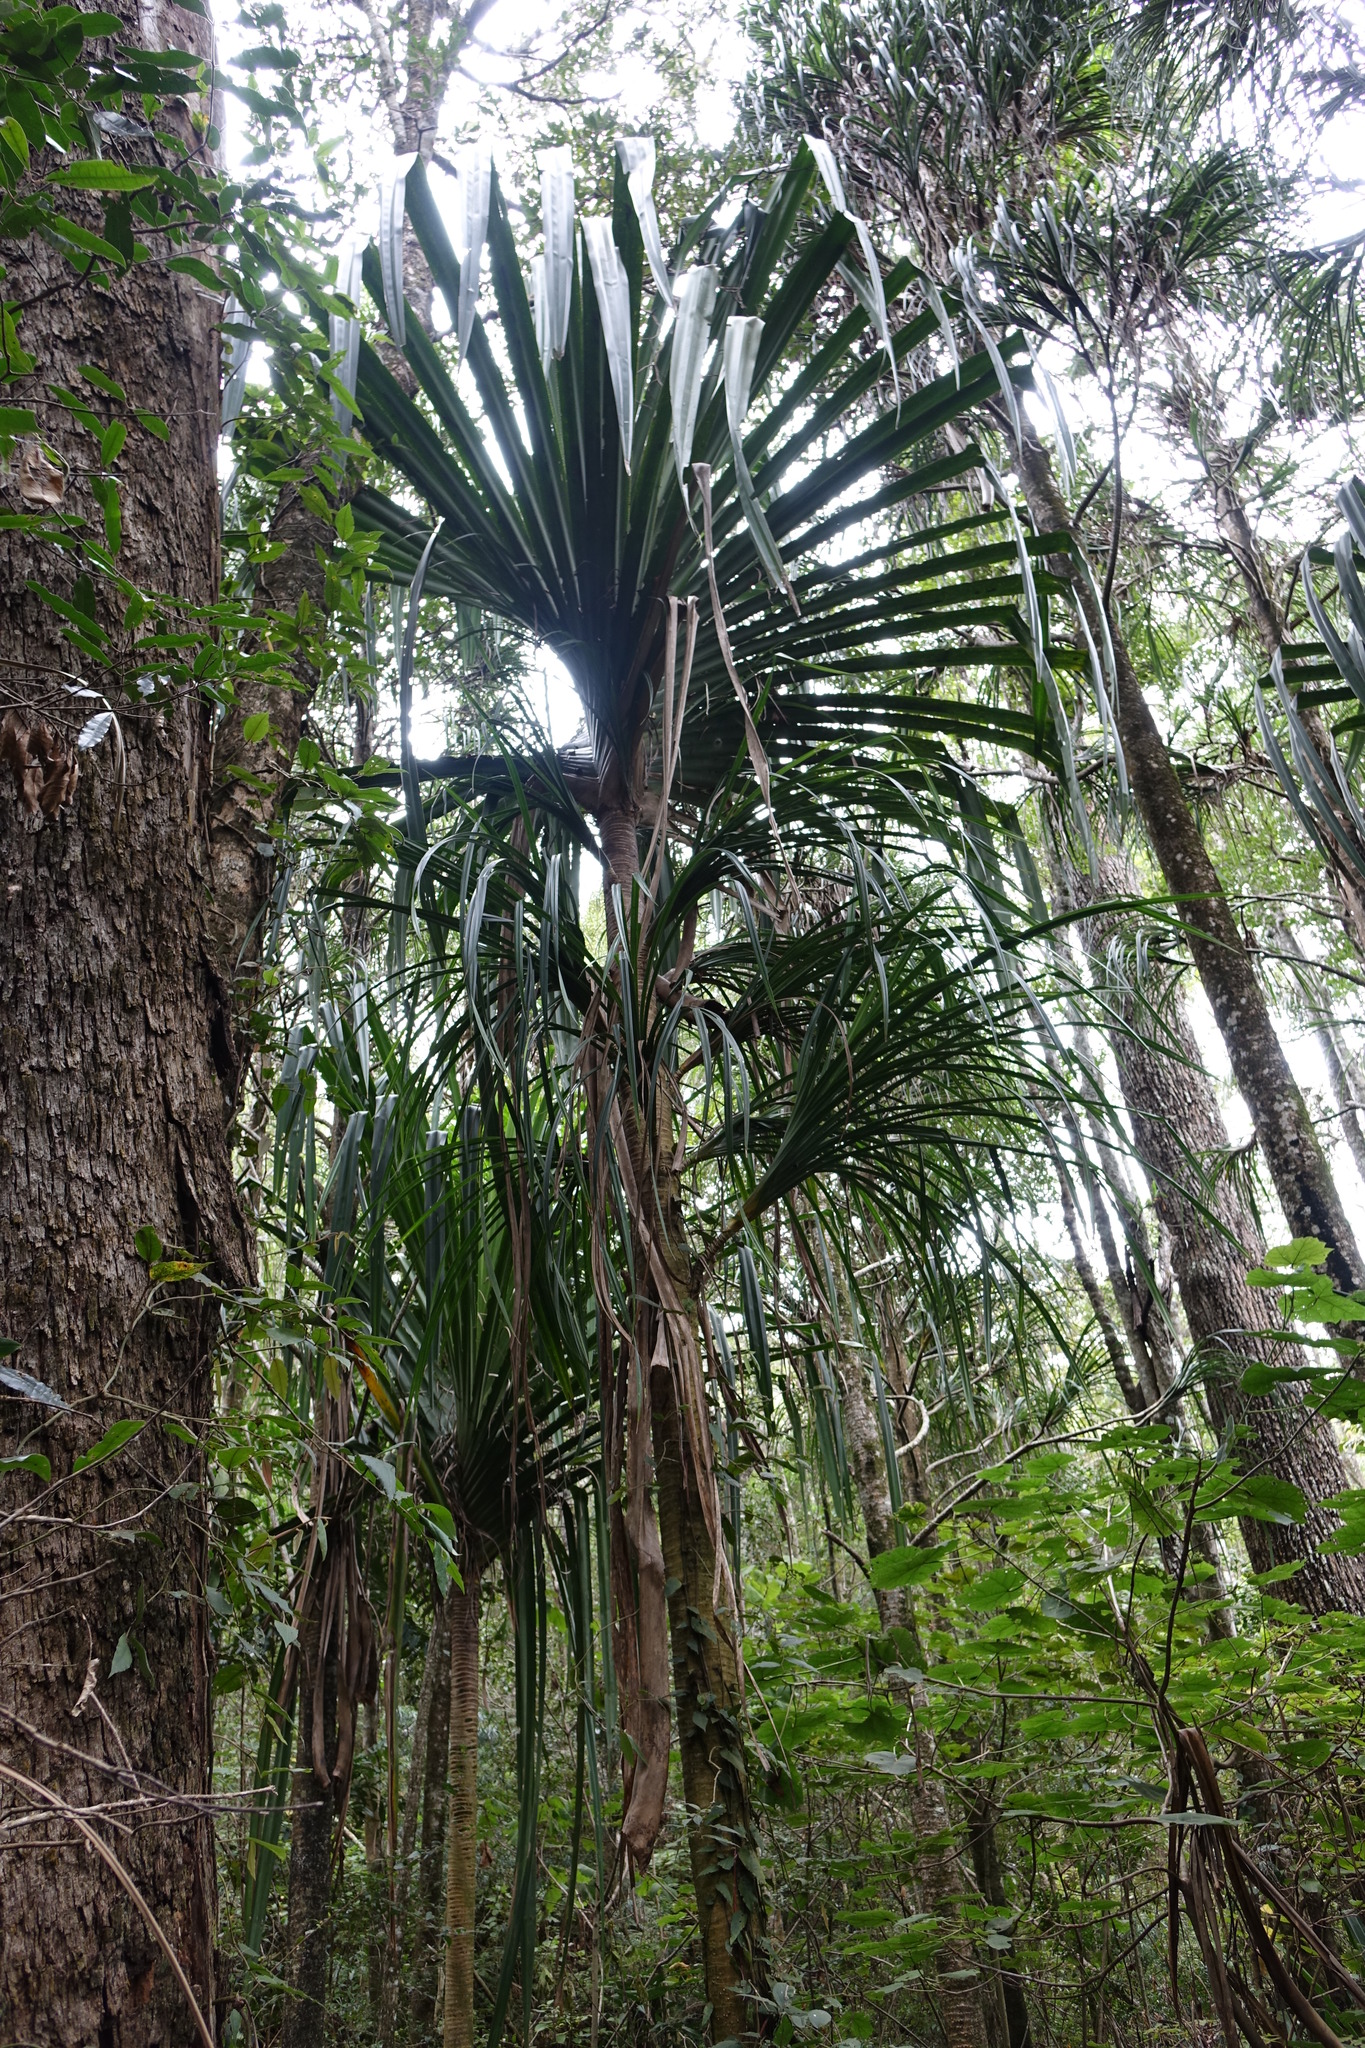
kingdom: Plantae
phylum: Tracheophyta
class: Liliopsida
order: Pandanales
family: Pandanaceae
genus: Pandanus
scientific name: Pandanus bakeri
